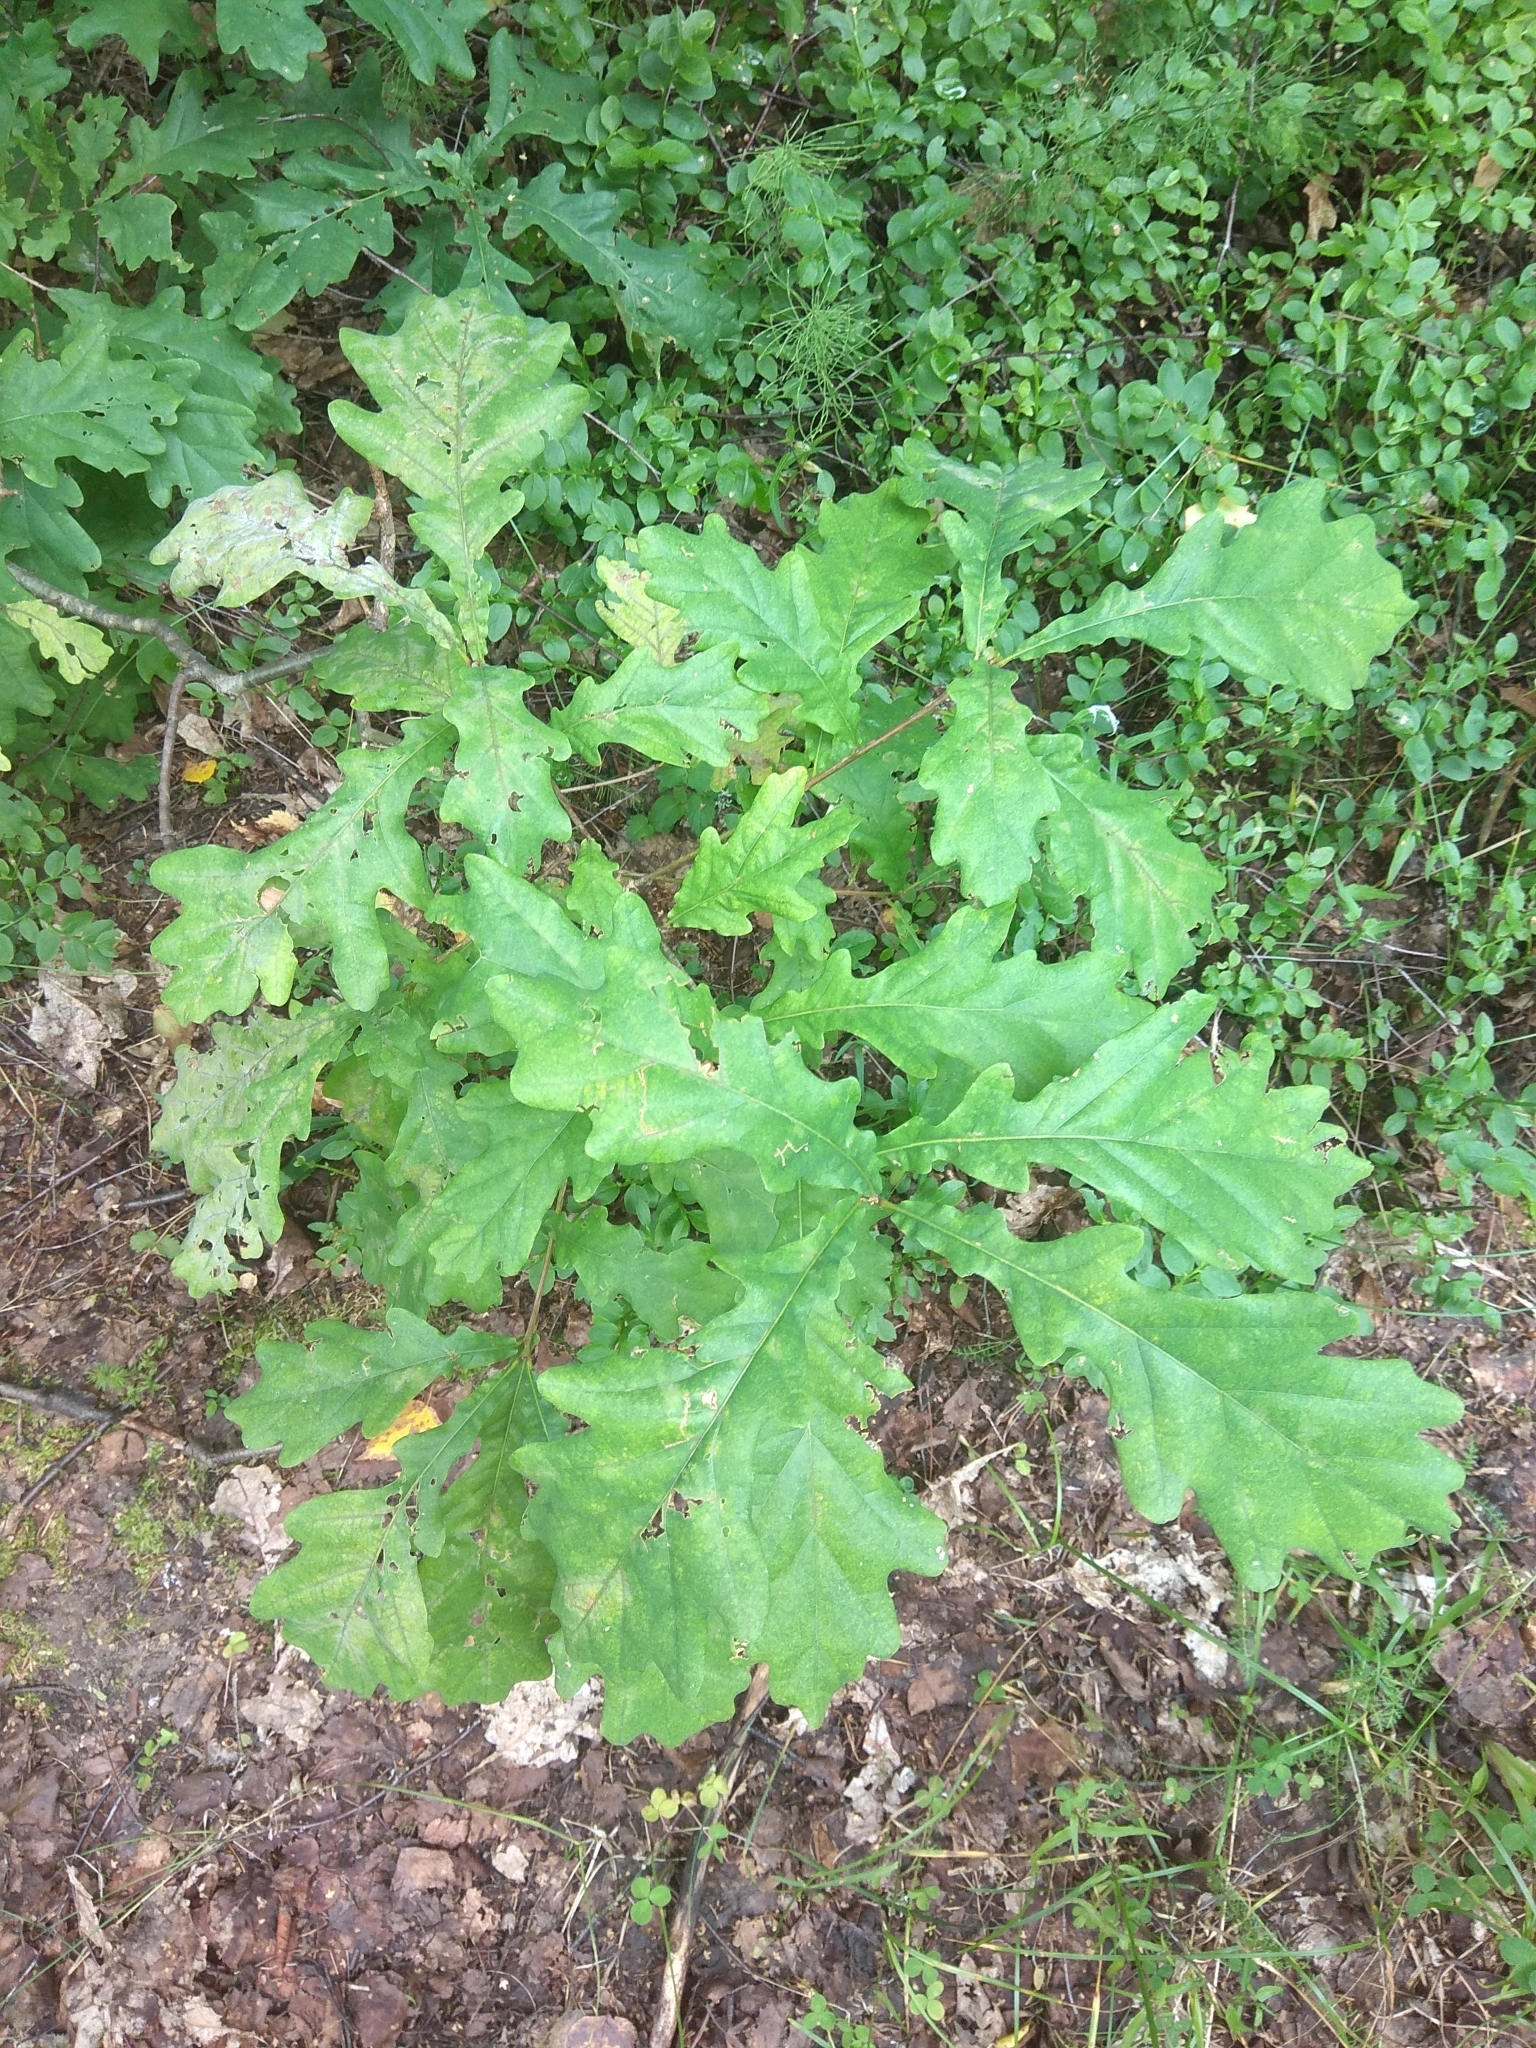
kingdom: Plantae
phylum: Tracheophyta
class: Magnoliopsida
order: Fagales
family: Fagaceae
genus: Quercus
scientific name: Quercus robur
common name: Pedunculate oak
